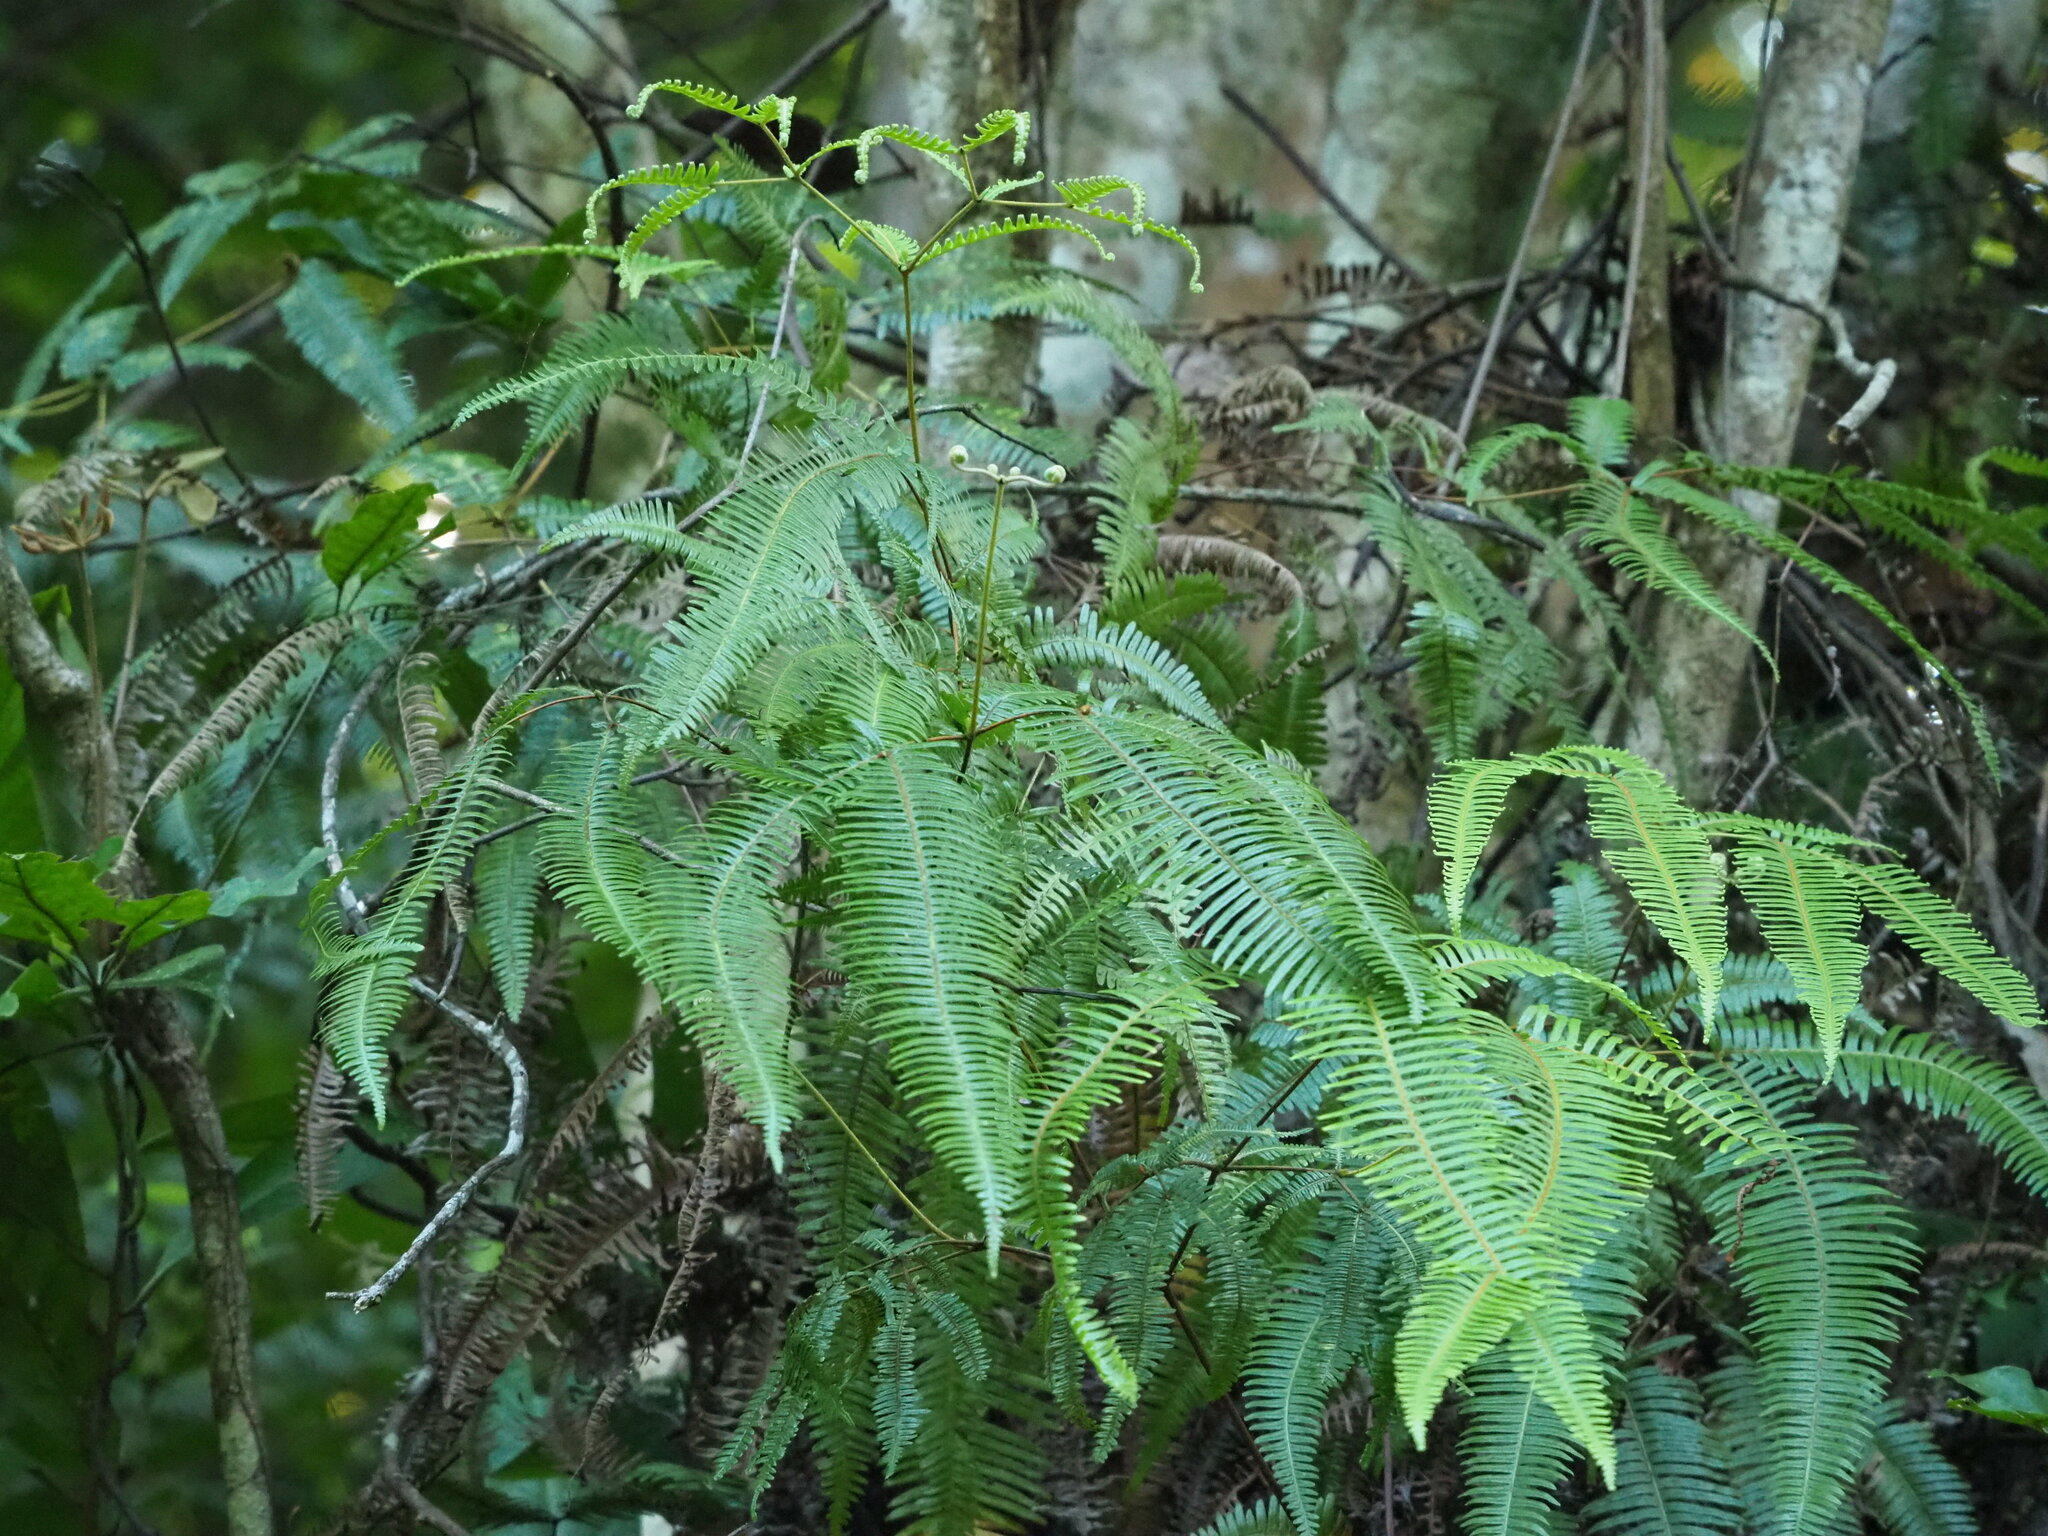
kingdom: Plantae
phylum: Tracheophyta
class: Polypodiopsida
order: Gleicheniales
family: Gleicheniaceae
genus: Dicranopteris
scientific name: Dicranopteris linearis
